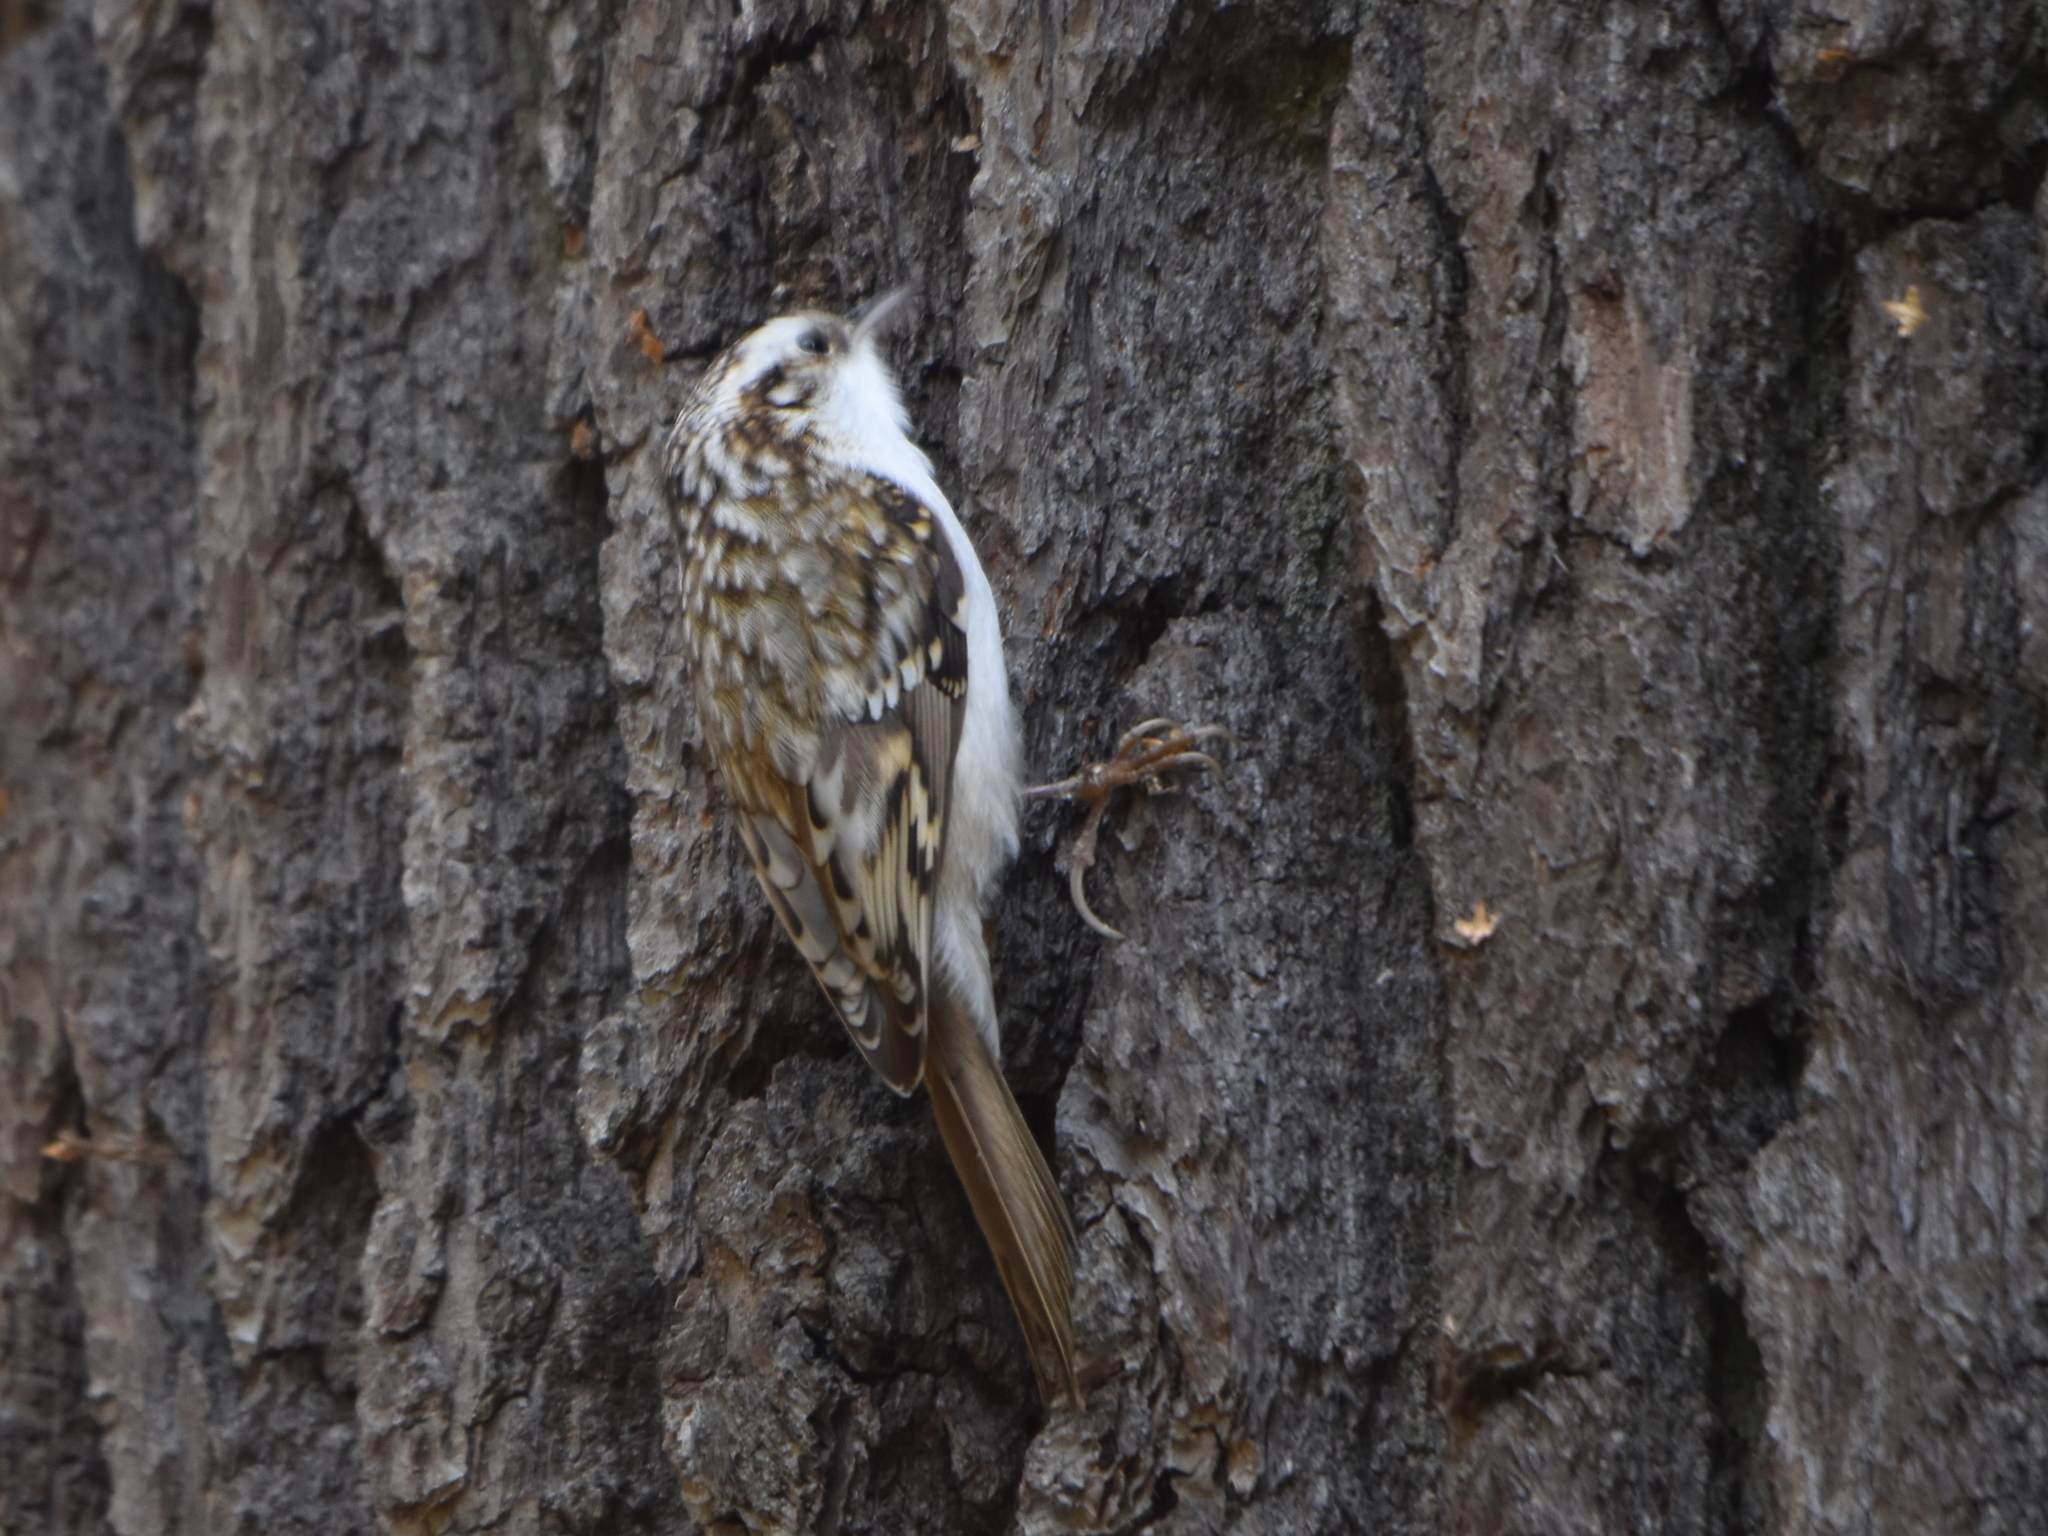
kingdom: Animalia
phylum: Chordata
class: Aves
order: Passeriformes
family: Certhiidae
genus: Certhia
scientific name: Certhia familiaris
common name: Eurasian treecreeper
